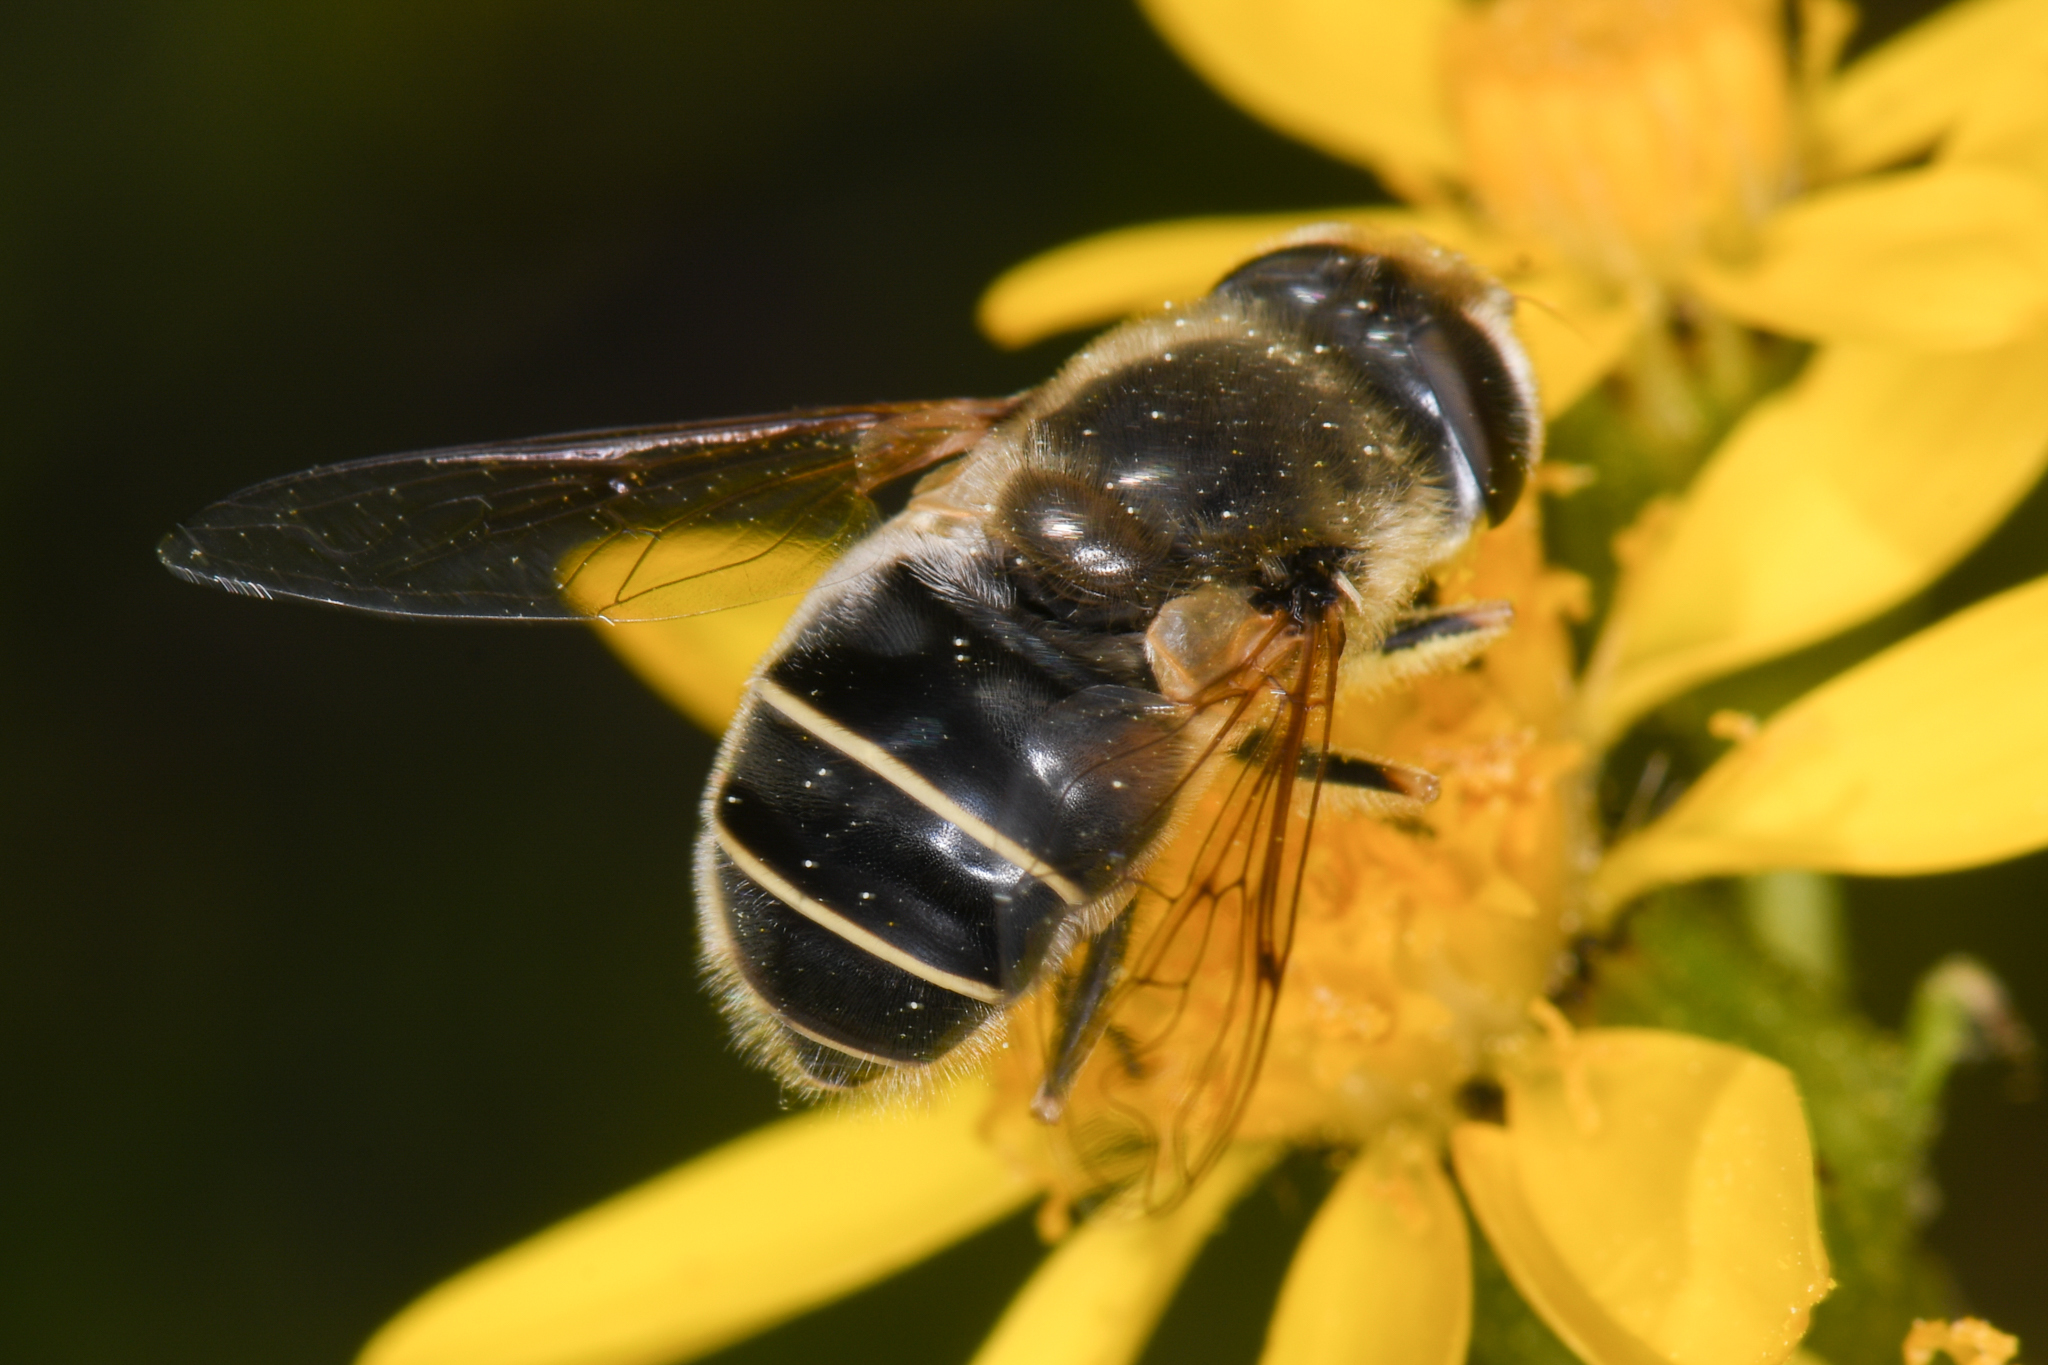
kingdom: Animalia
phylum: Arthropoda
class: Insecta
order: Diptera
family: Syrphidae
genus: Eristalis
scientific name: Eristalis hirta
